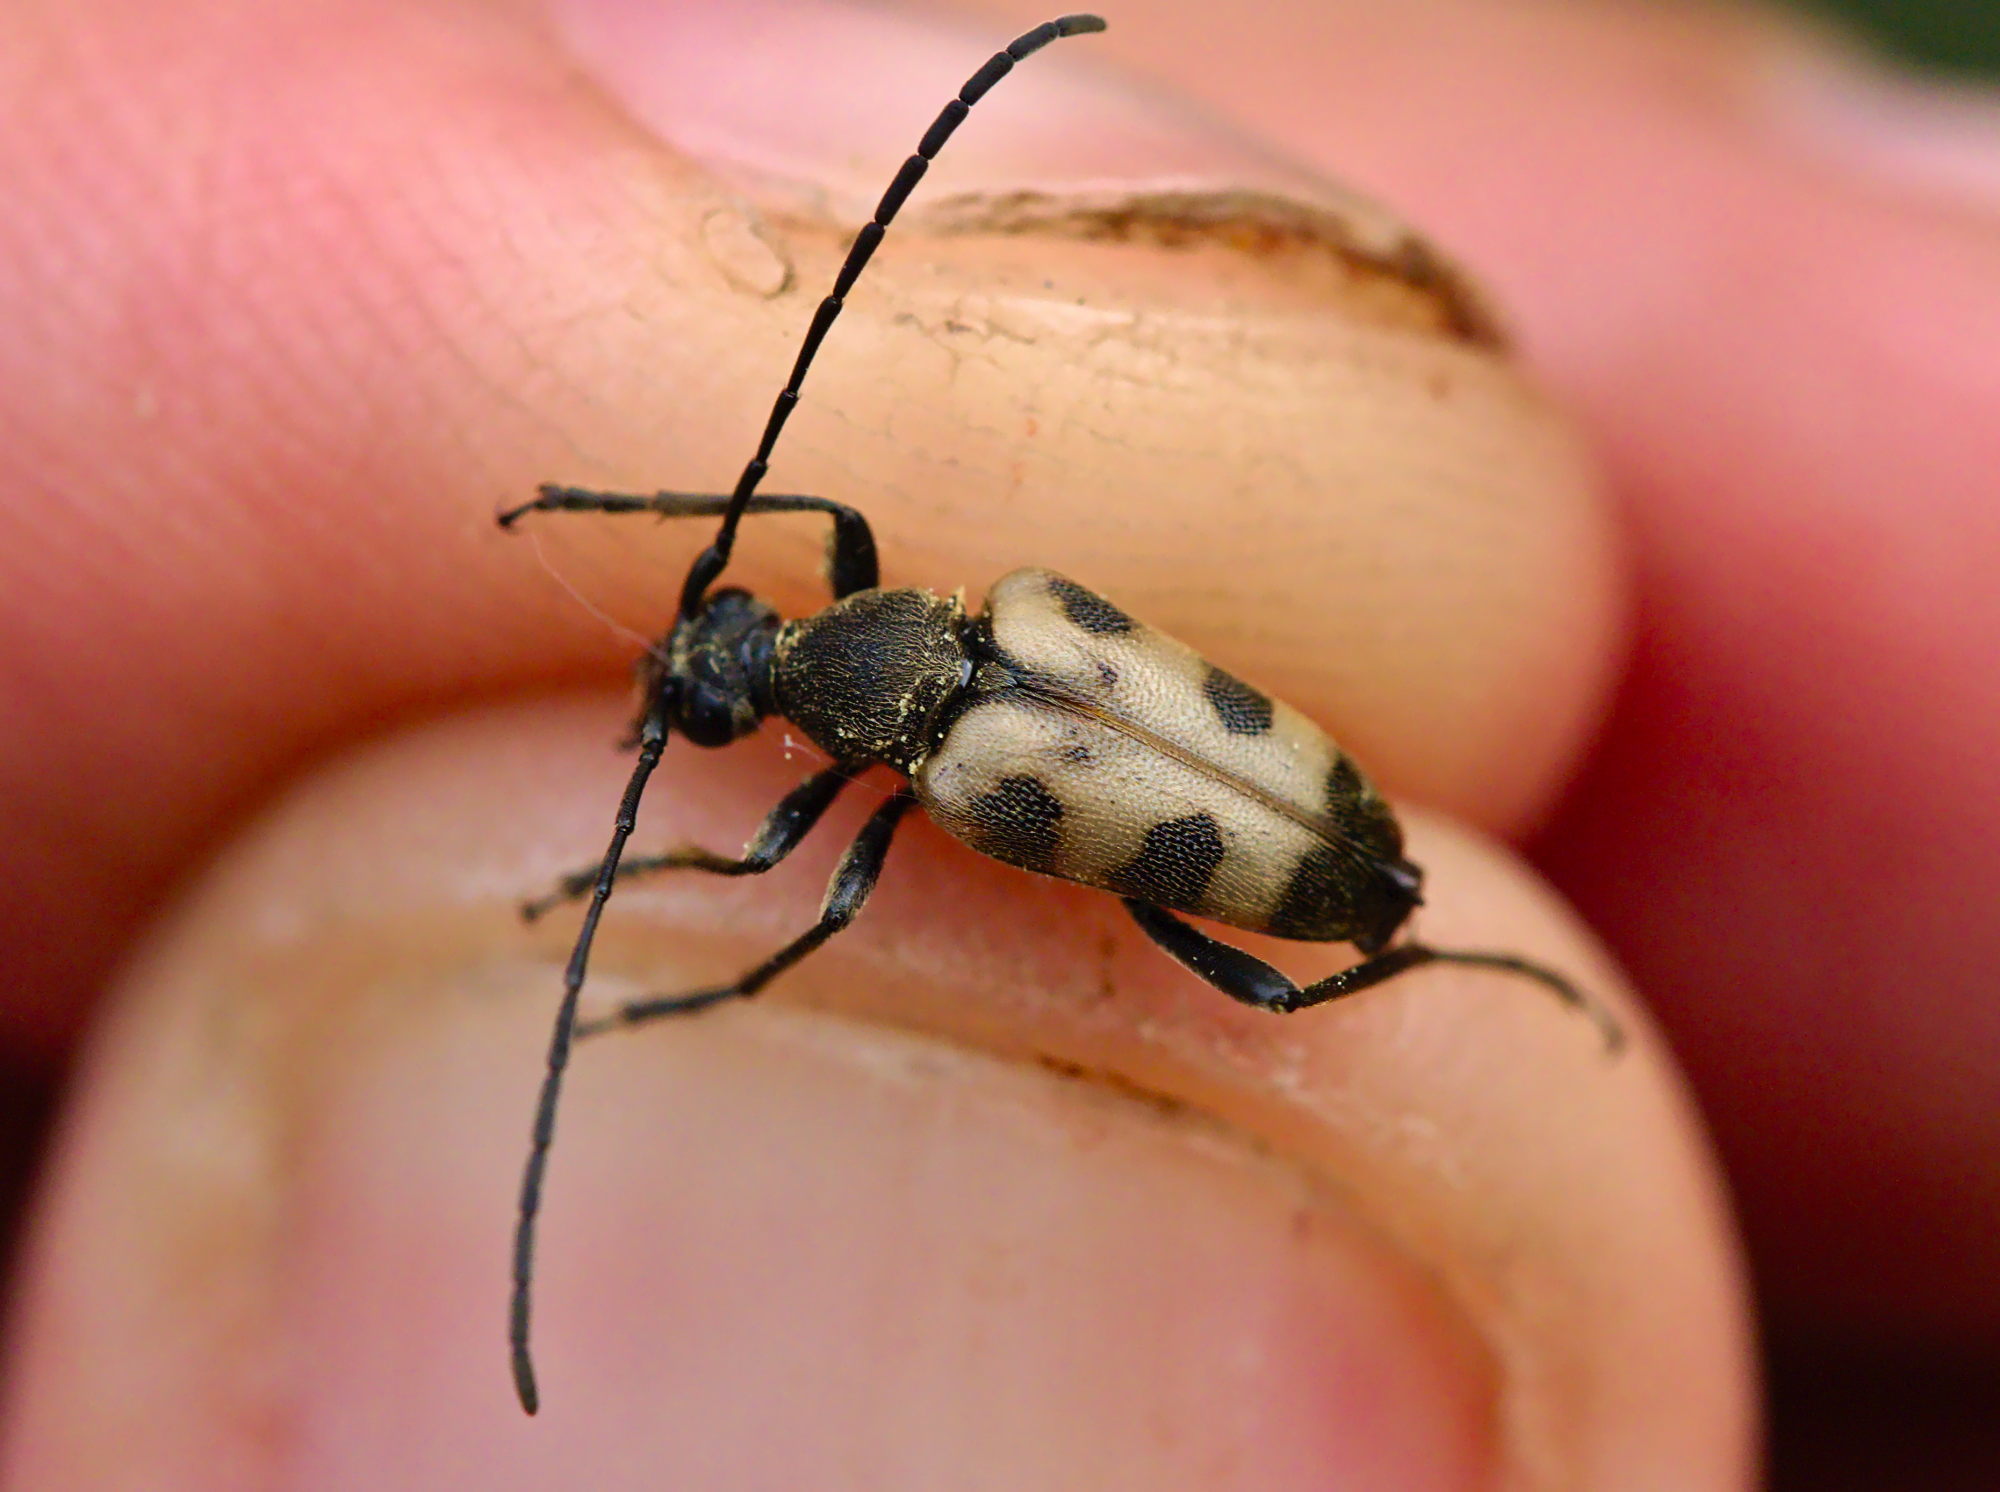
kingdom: Animalia
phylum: Arthropoda
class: Insecta
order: Coleoptera
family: Cerambycidae
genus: Pachytodes
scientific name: Pachytodes cerambyciformis
